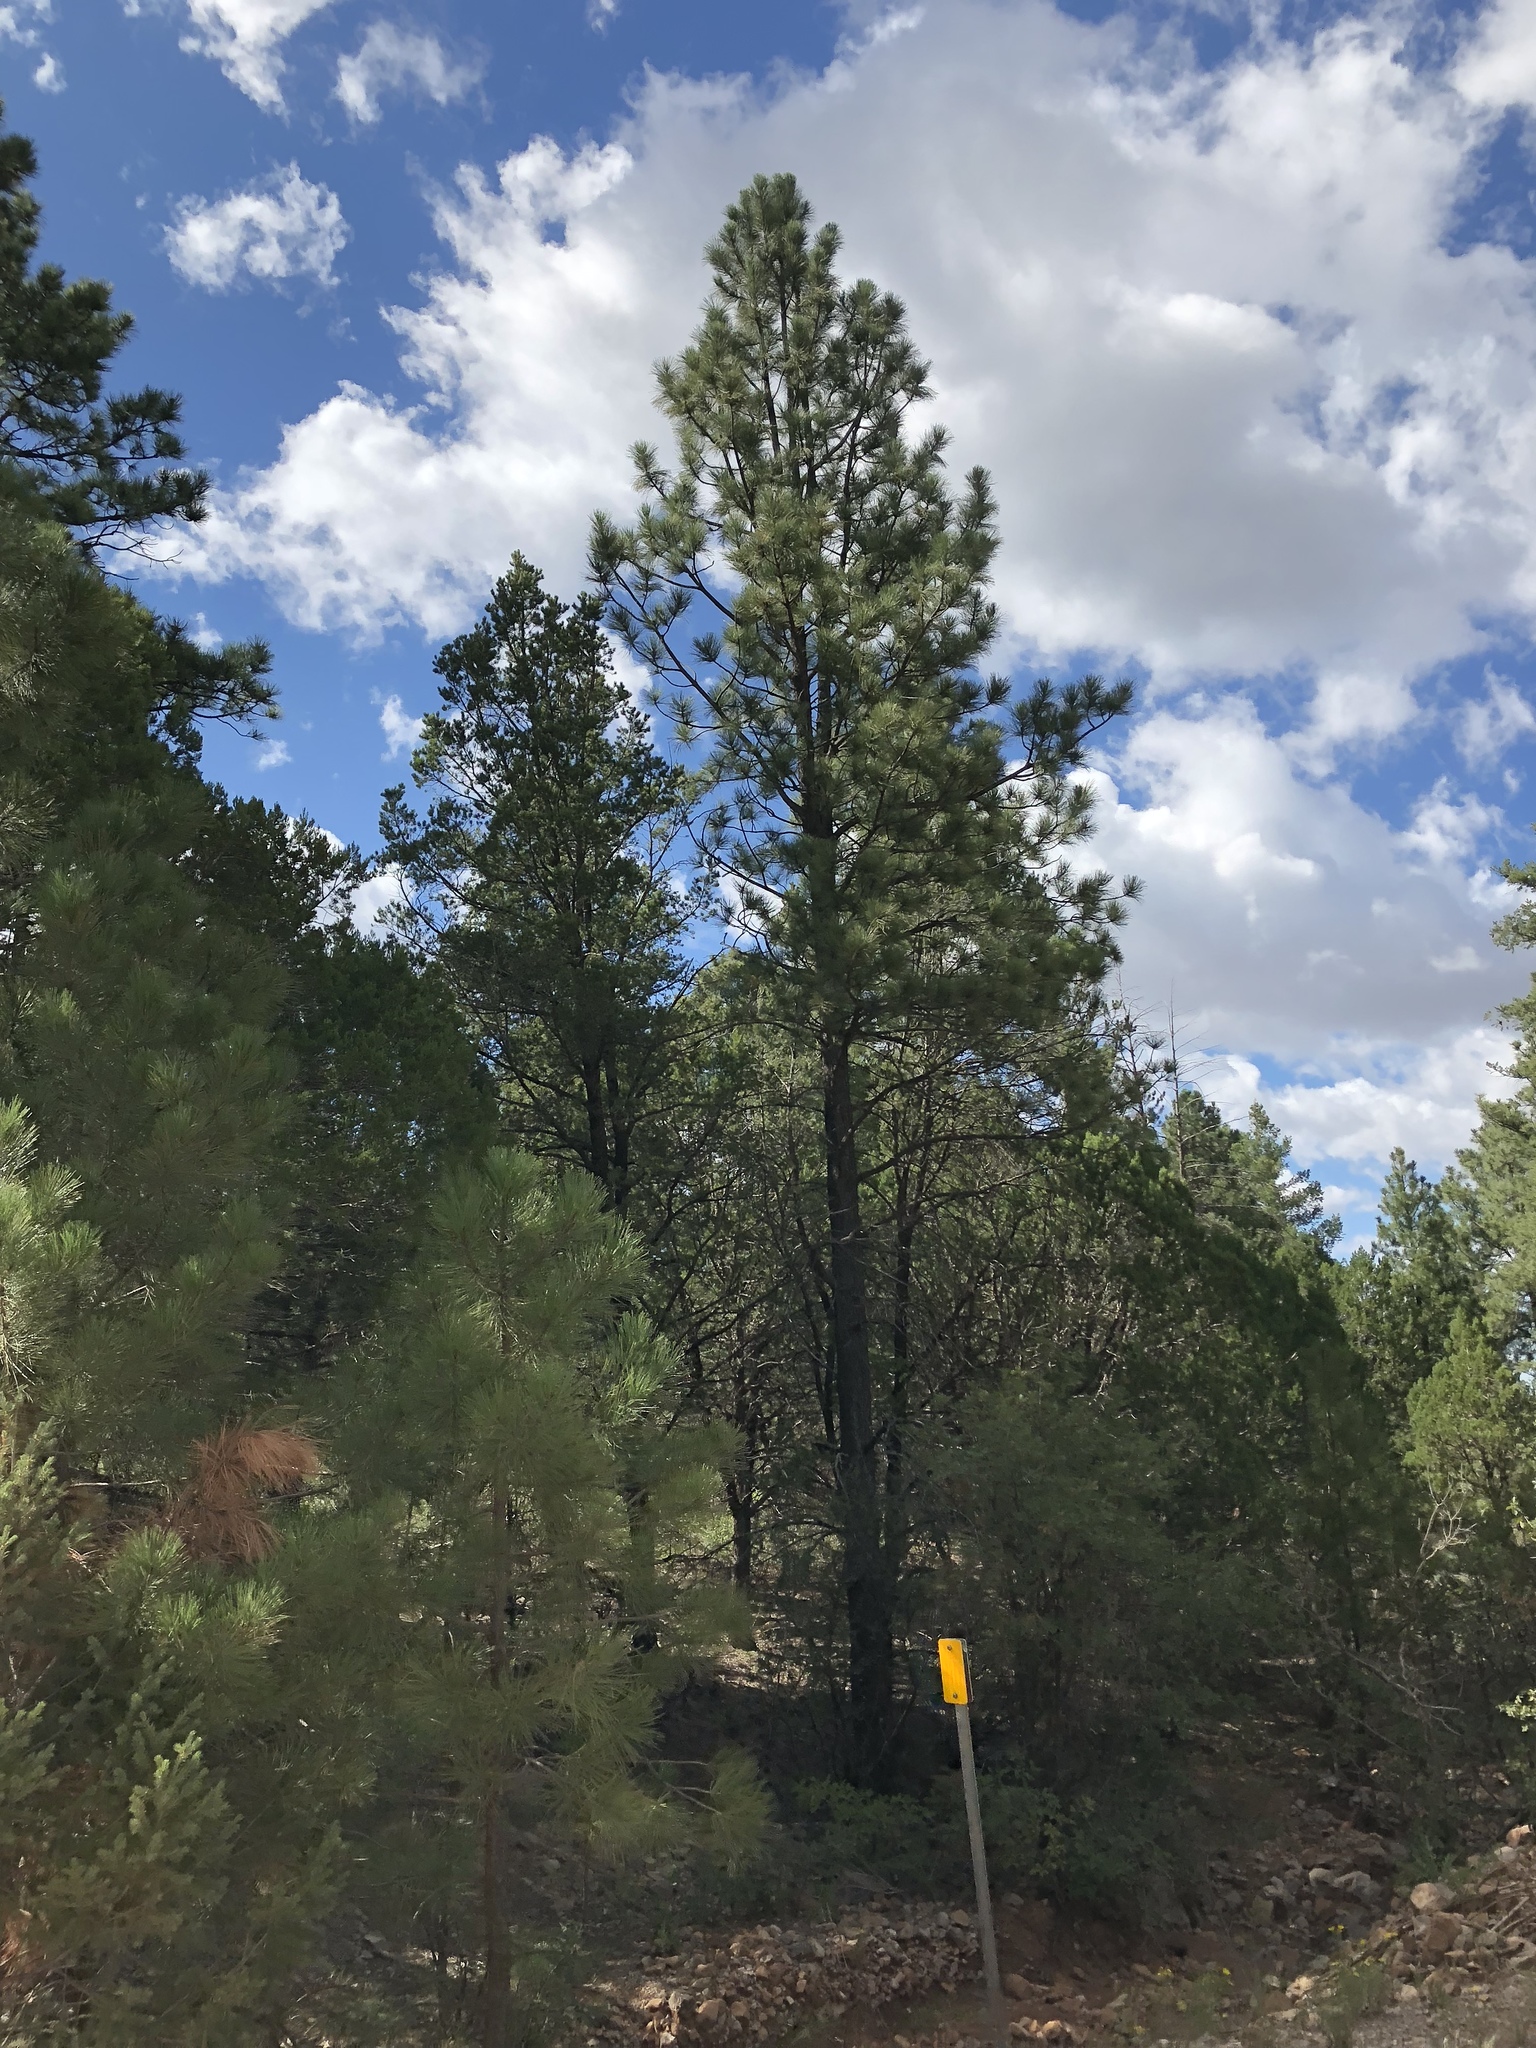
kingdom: Plantae
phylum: Tracheophyta
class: Pinopsida
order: Pinales
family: Pinaceae
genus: Pinus
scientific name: Pinus ponderosa
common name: Western yellow-pine
